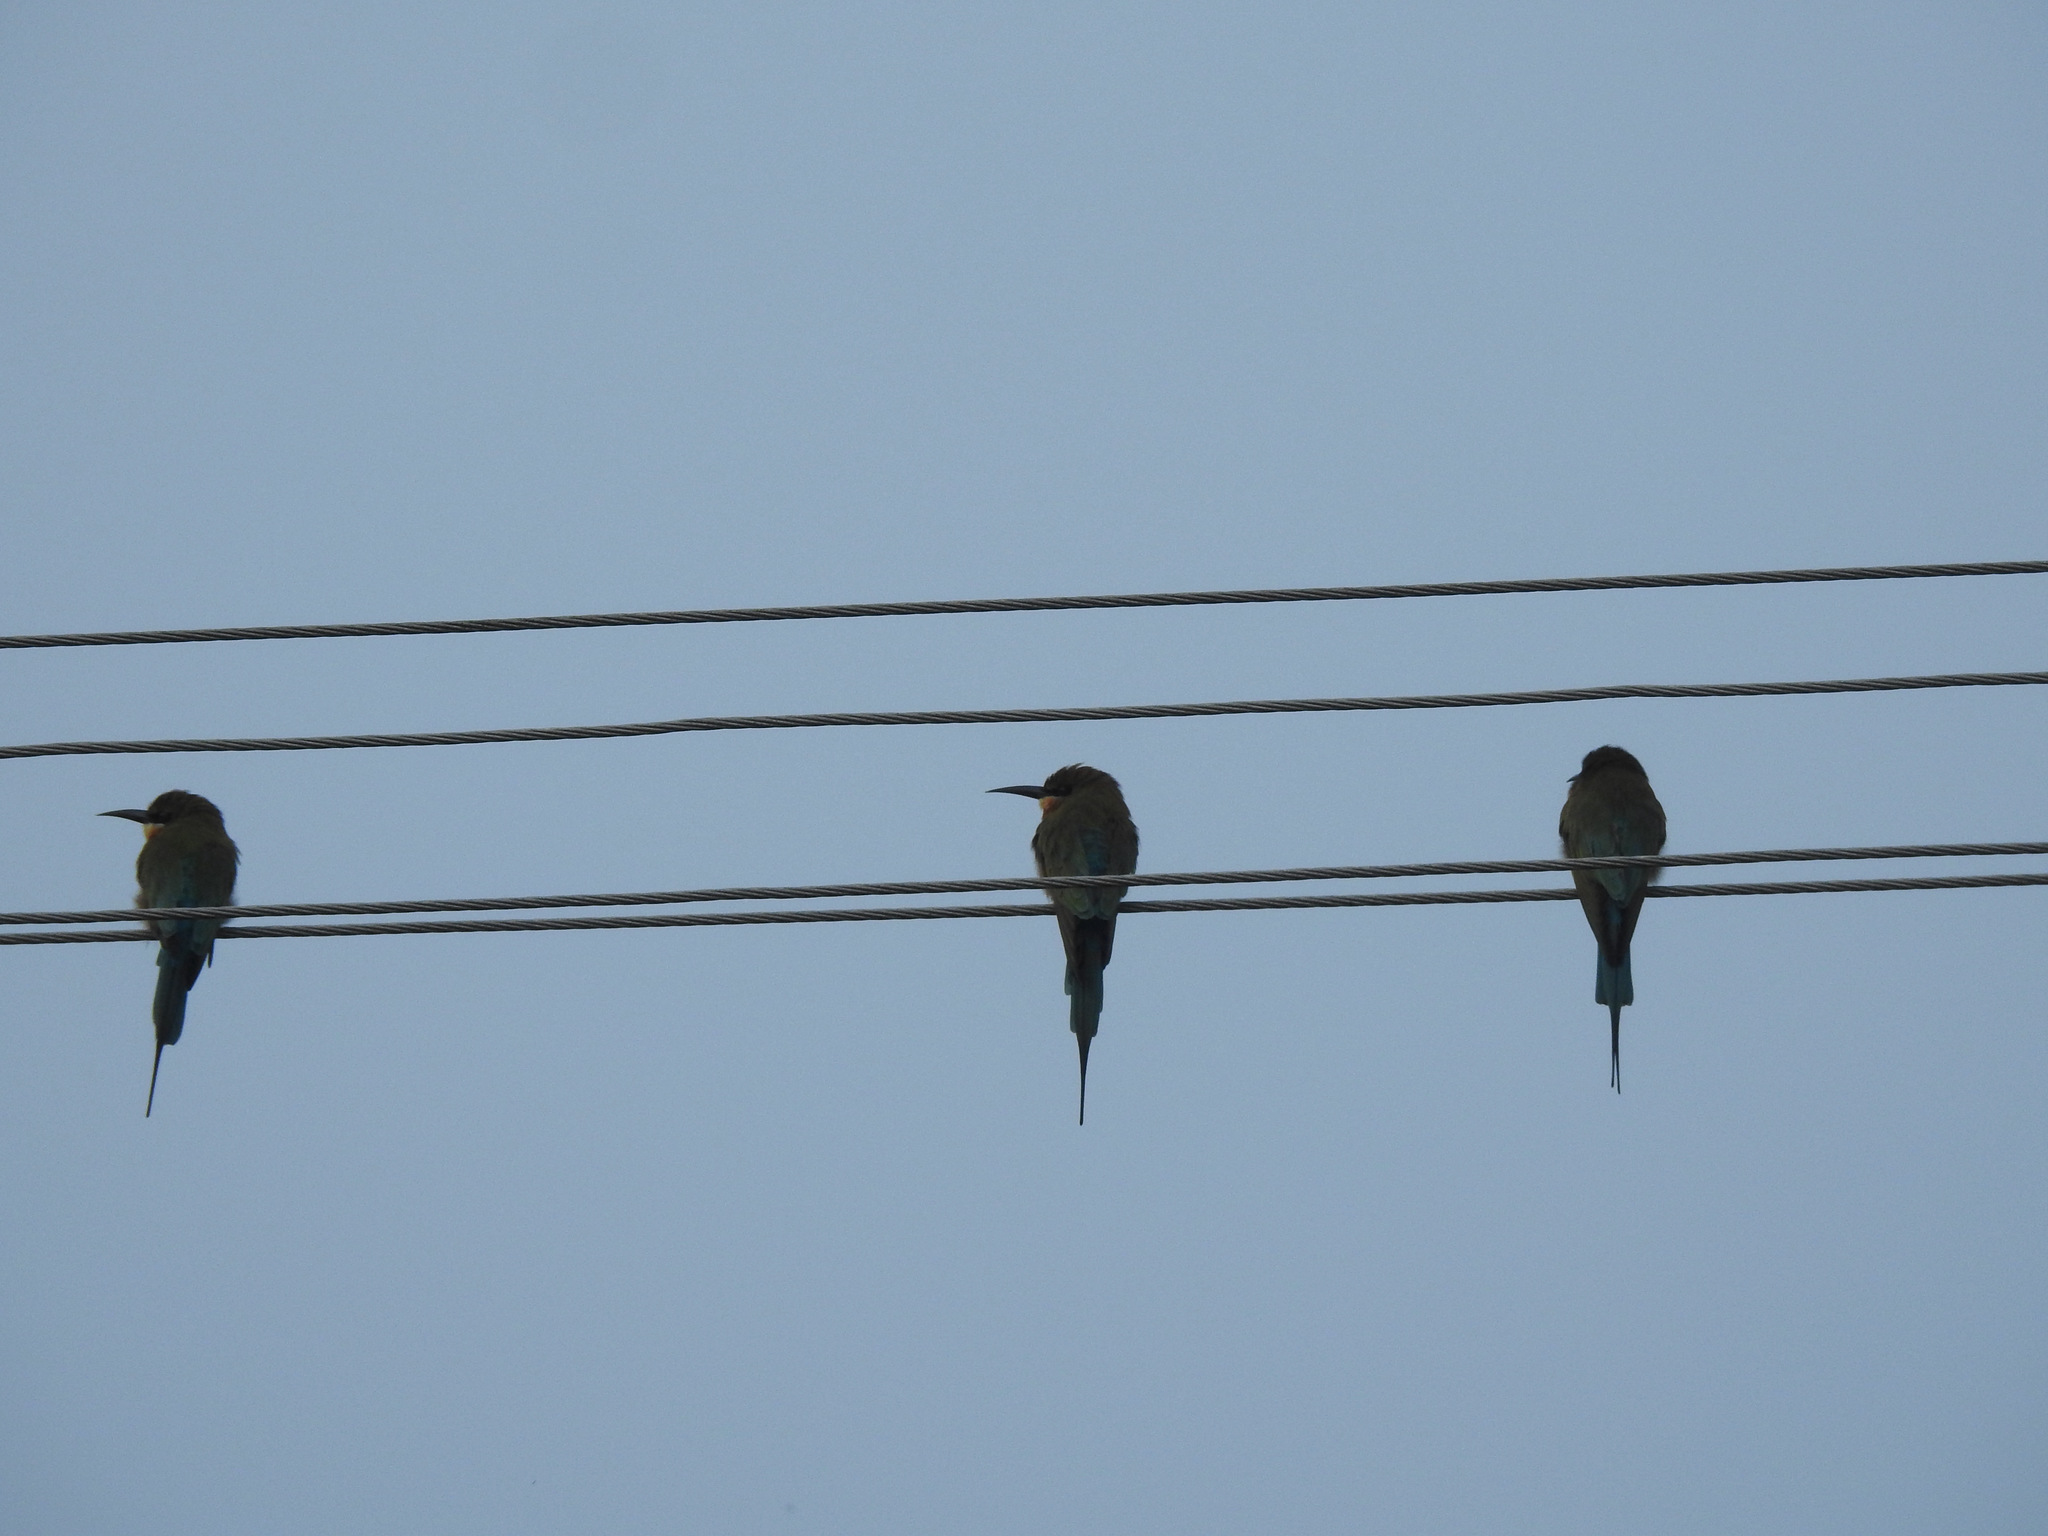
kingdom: Animalia
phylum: Chordata
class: Aves
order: Coraciiformes
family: Meropidae
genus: Merops
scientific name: Merops philippinus
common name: Blue-tailed bee-eater
